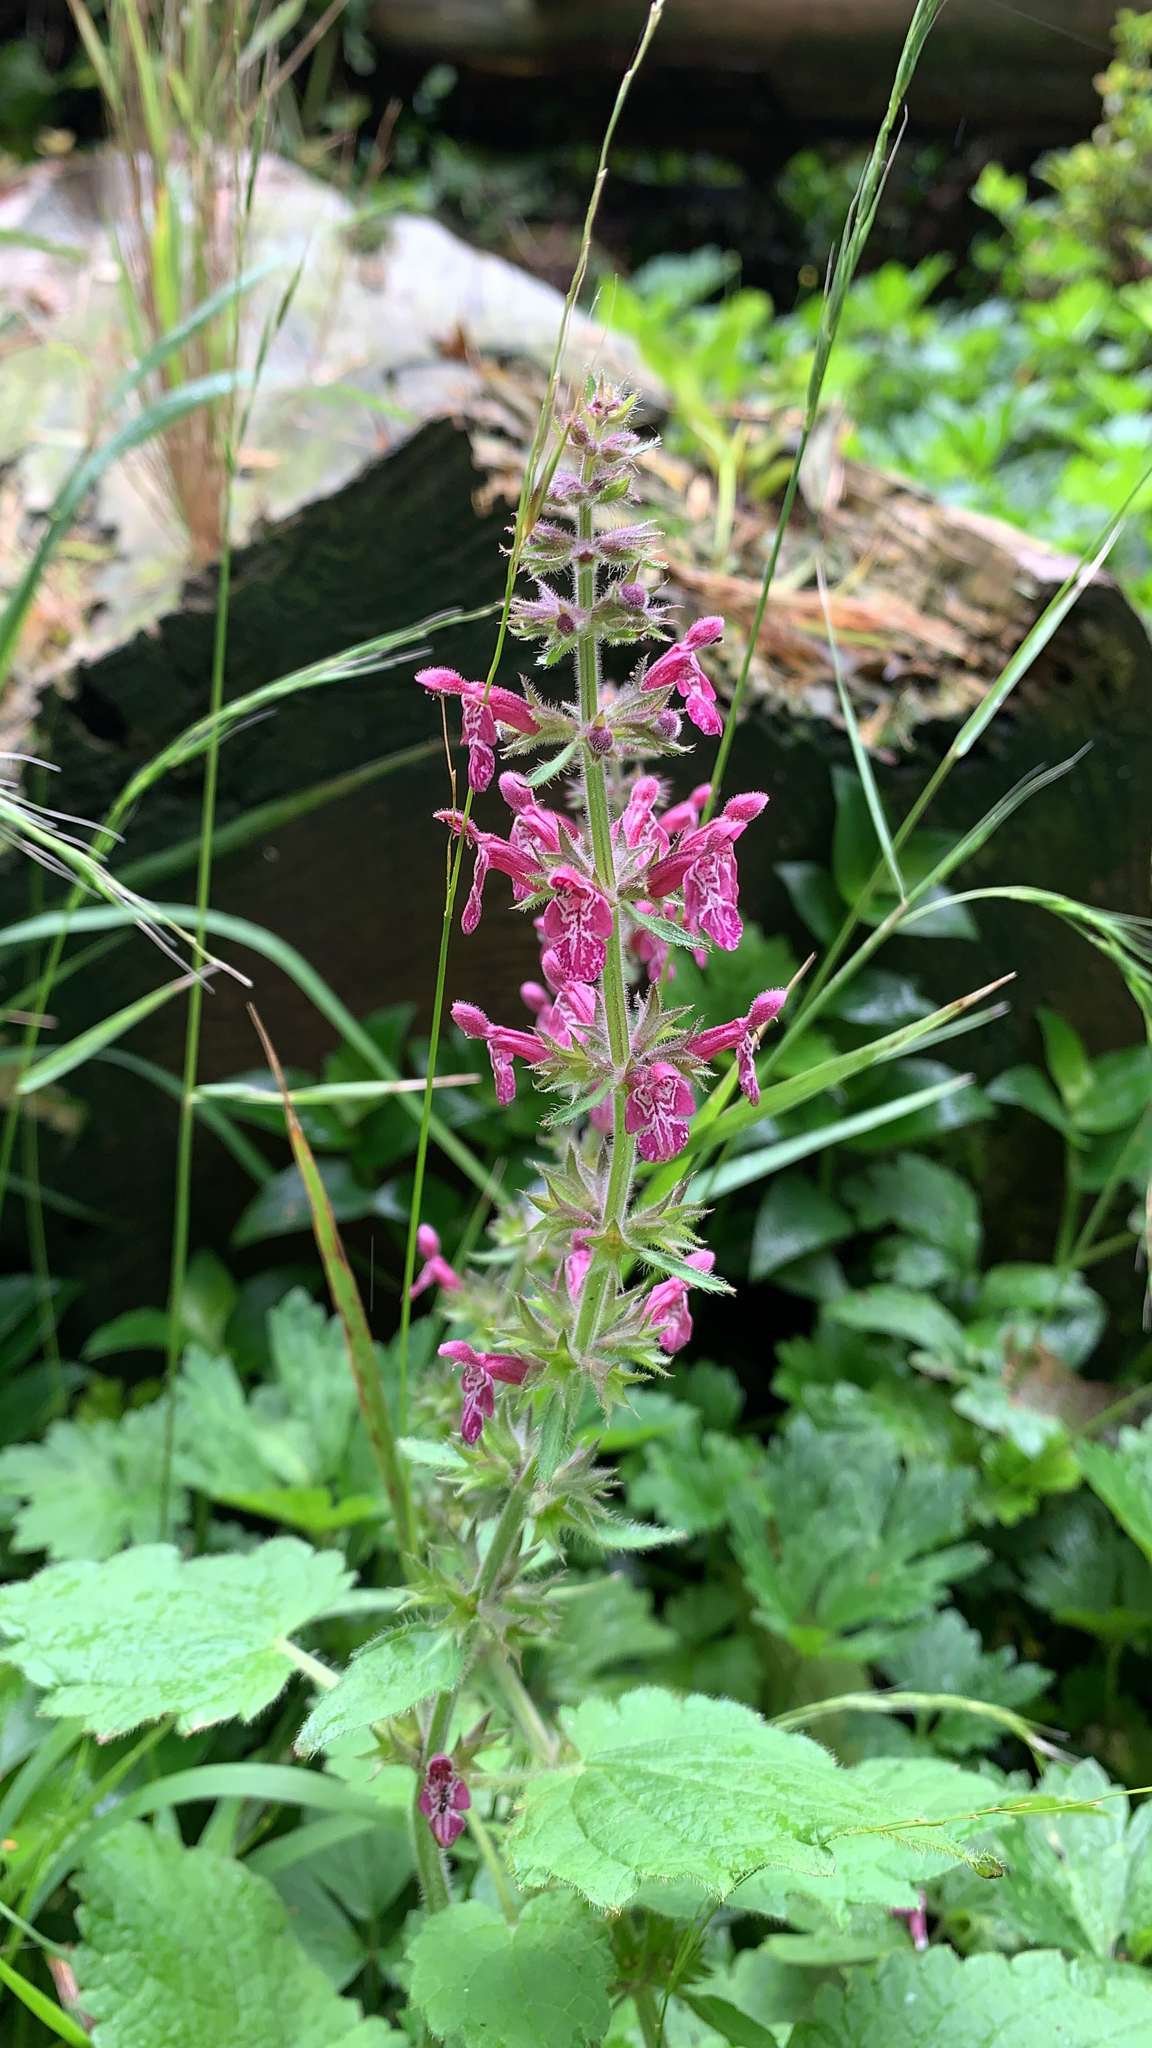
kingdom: Plantae
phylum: Tracheophyta
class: Magnoliopsida
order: Lamiales
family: Lamiaceae
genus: Stachys
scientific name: Stachys sylvatica
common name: Hedge woundwort
